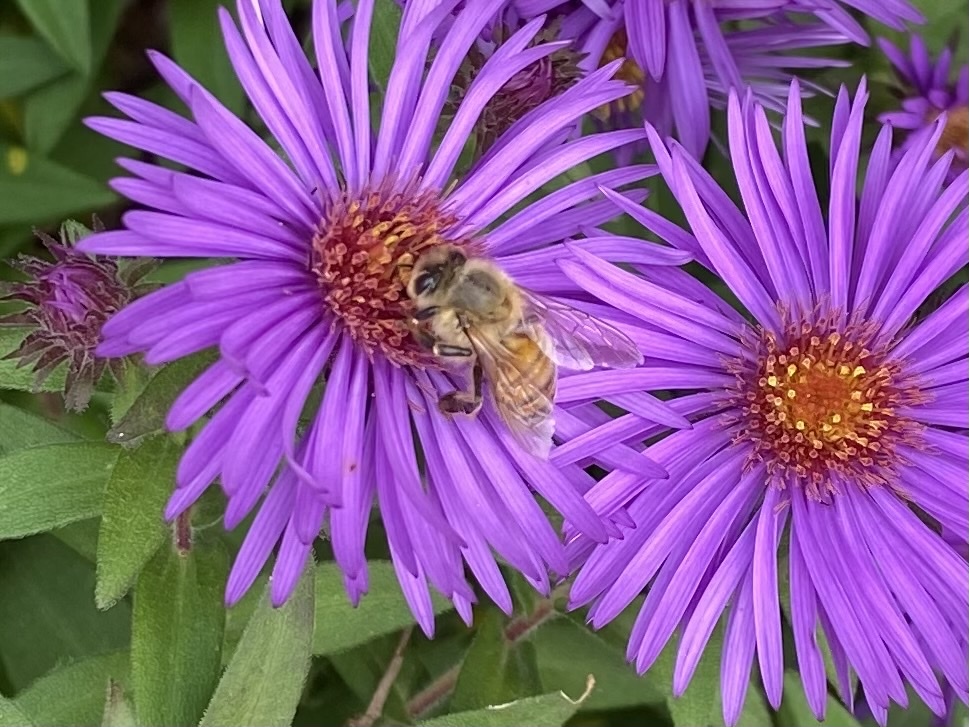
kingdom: Animalia
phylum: Arthropoda
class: Insecta
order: Hymenoptera
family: Apidae
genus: Apis
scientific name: Apis mellifera
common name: Honey bee
